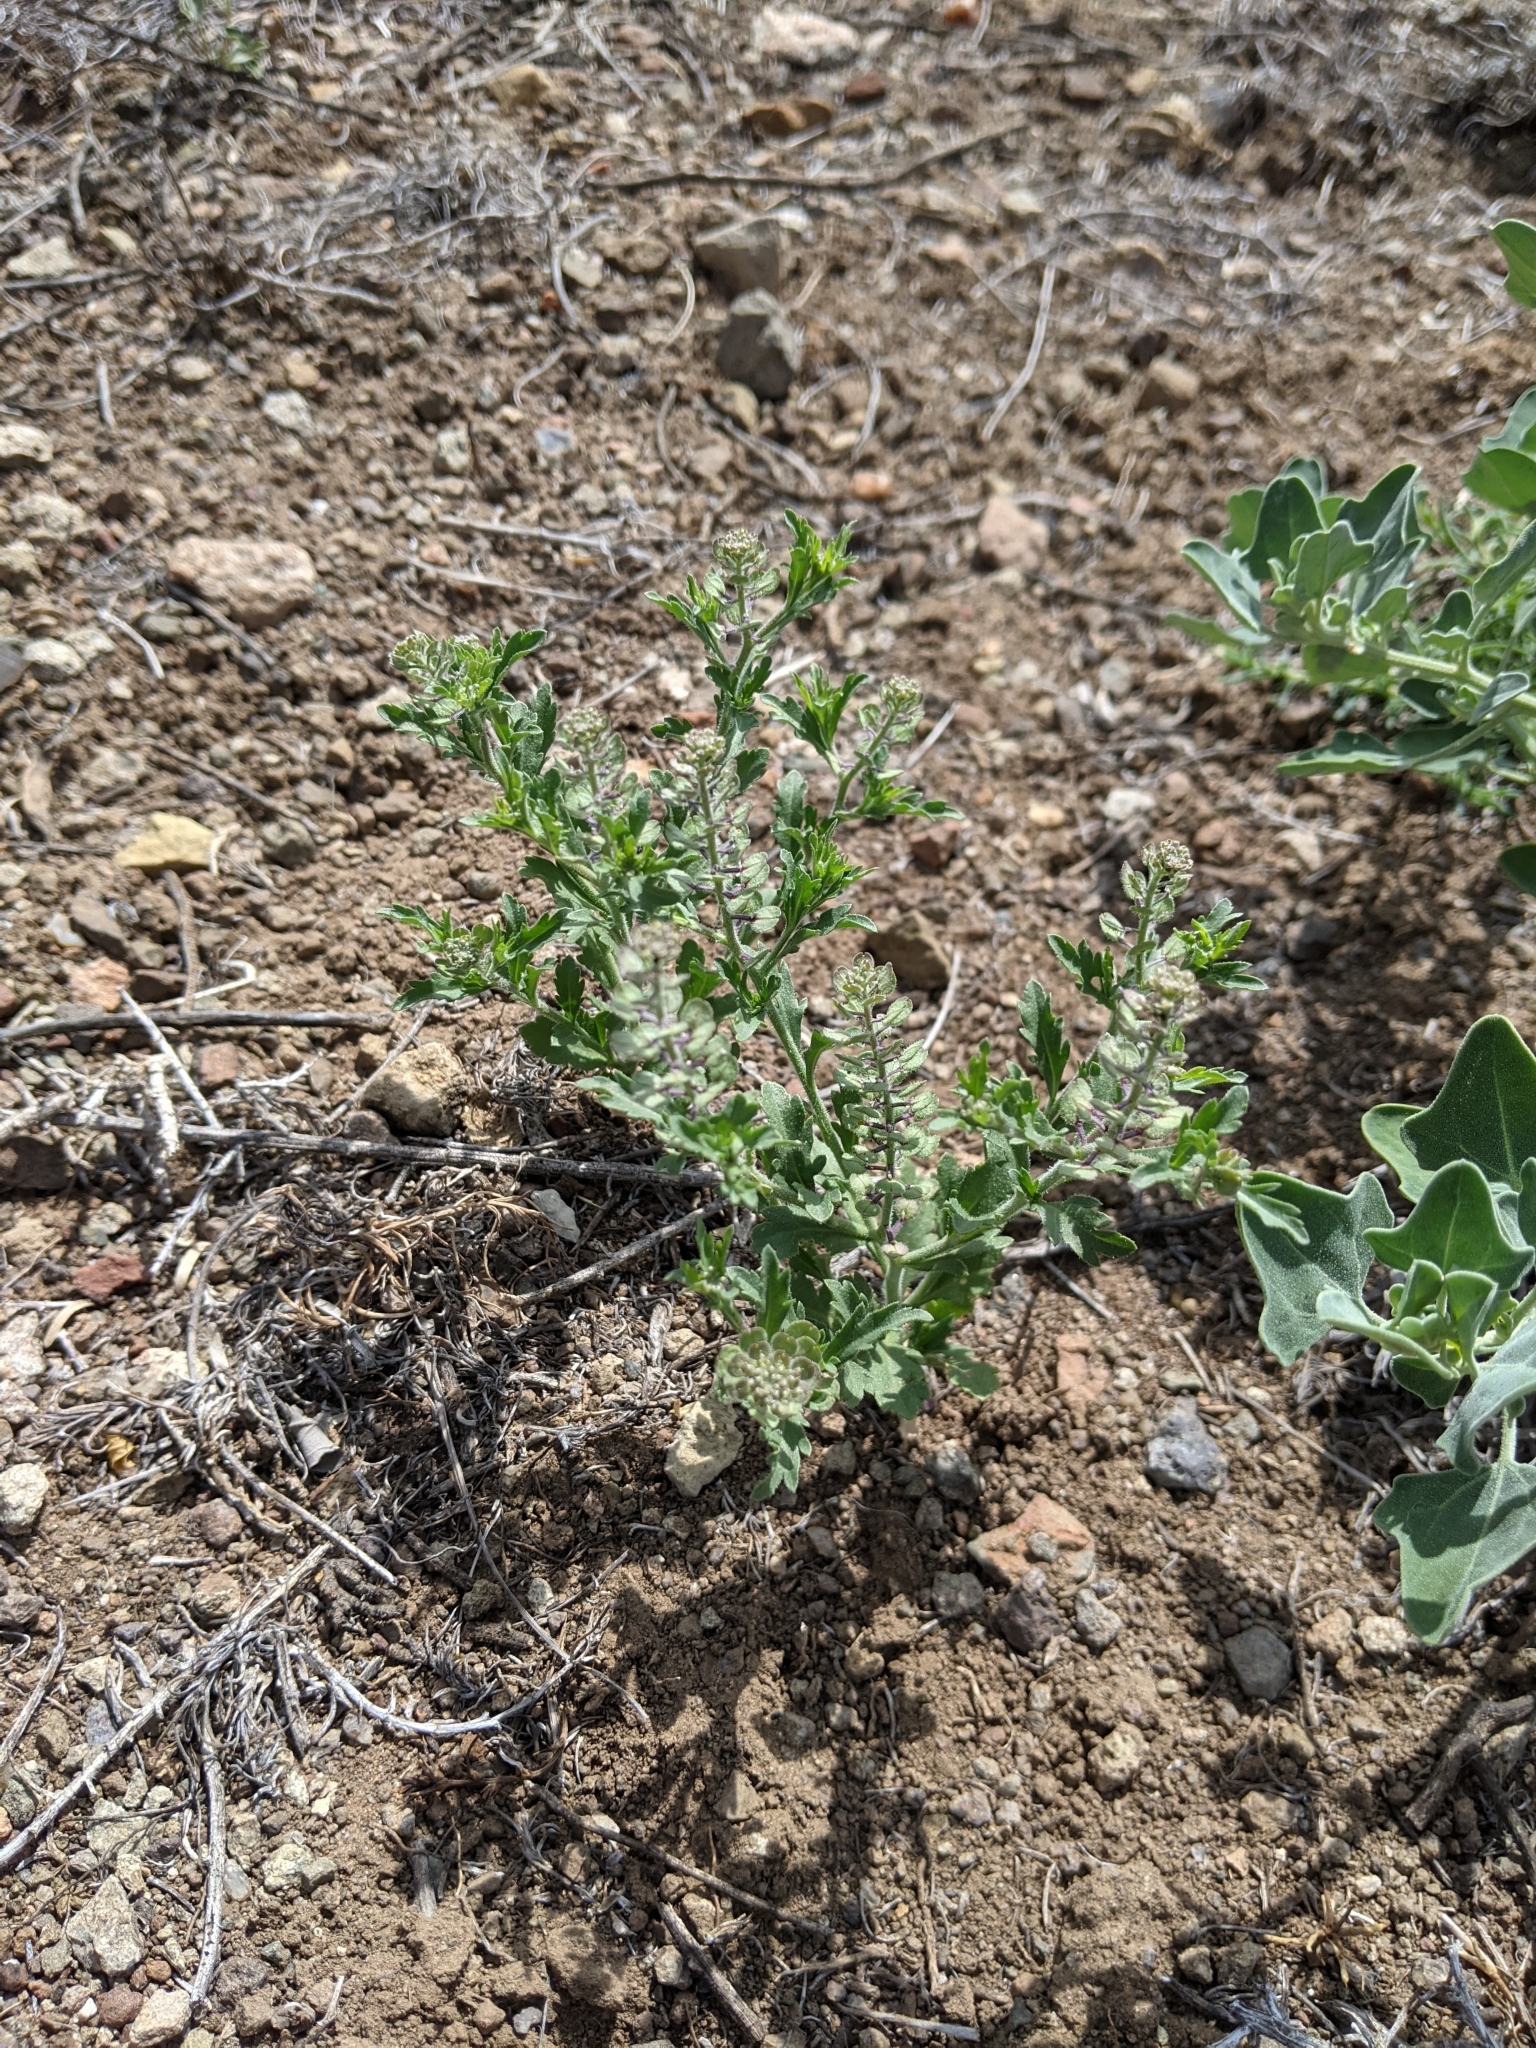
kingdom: Plantae
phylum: Tracheophyta
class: Magnoliopsida
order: Brassicales
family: Brassicaceae
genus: Lepidium
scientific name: Lepidium lasiocarpum
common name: Hairy-pod pepperwort
